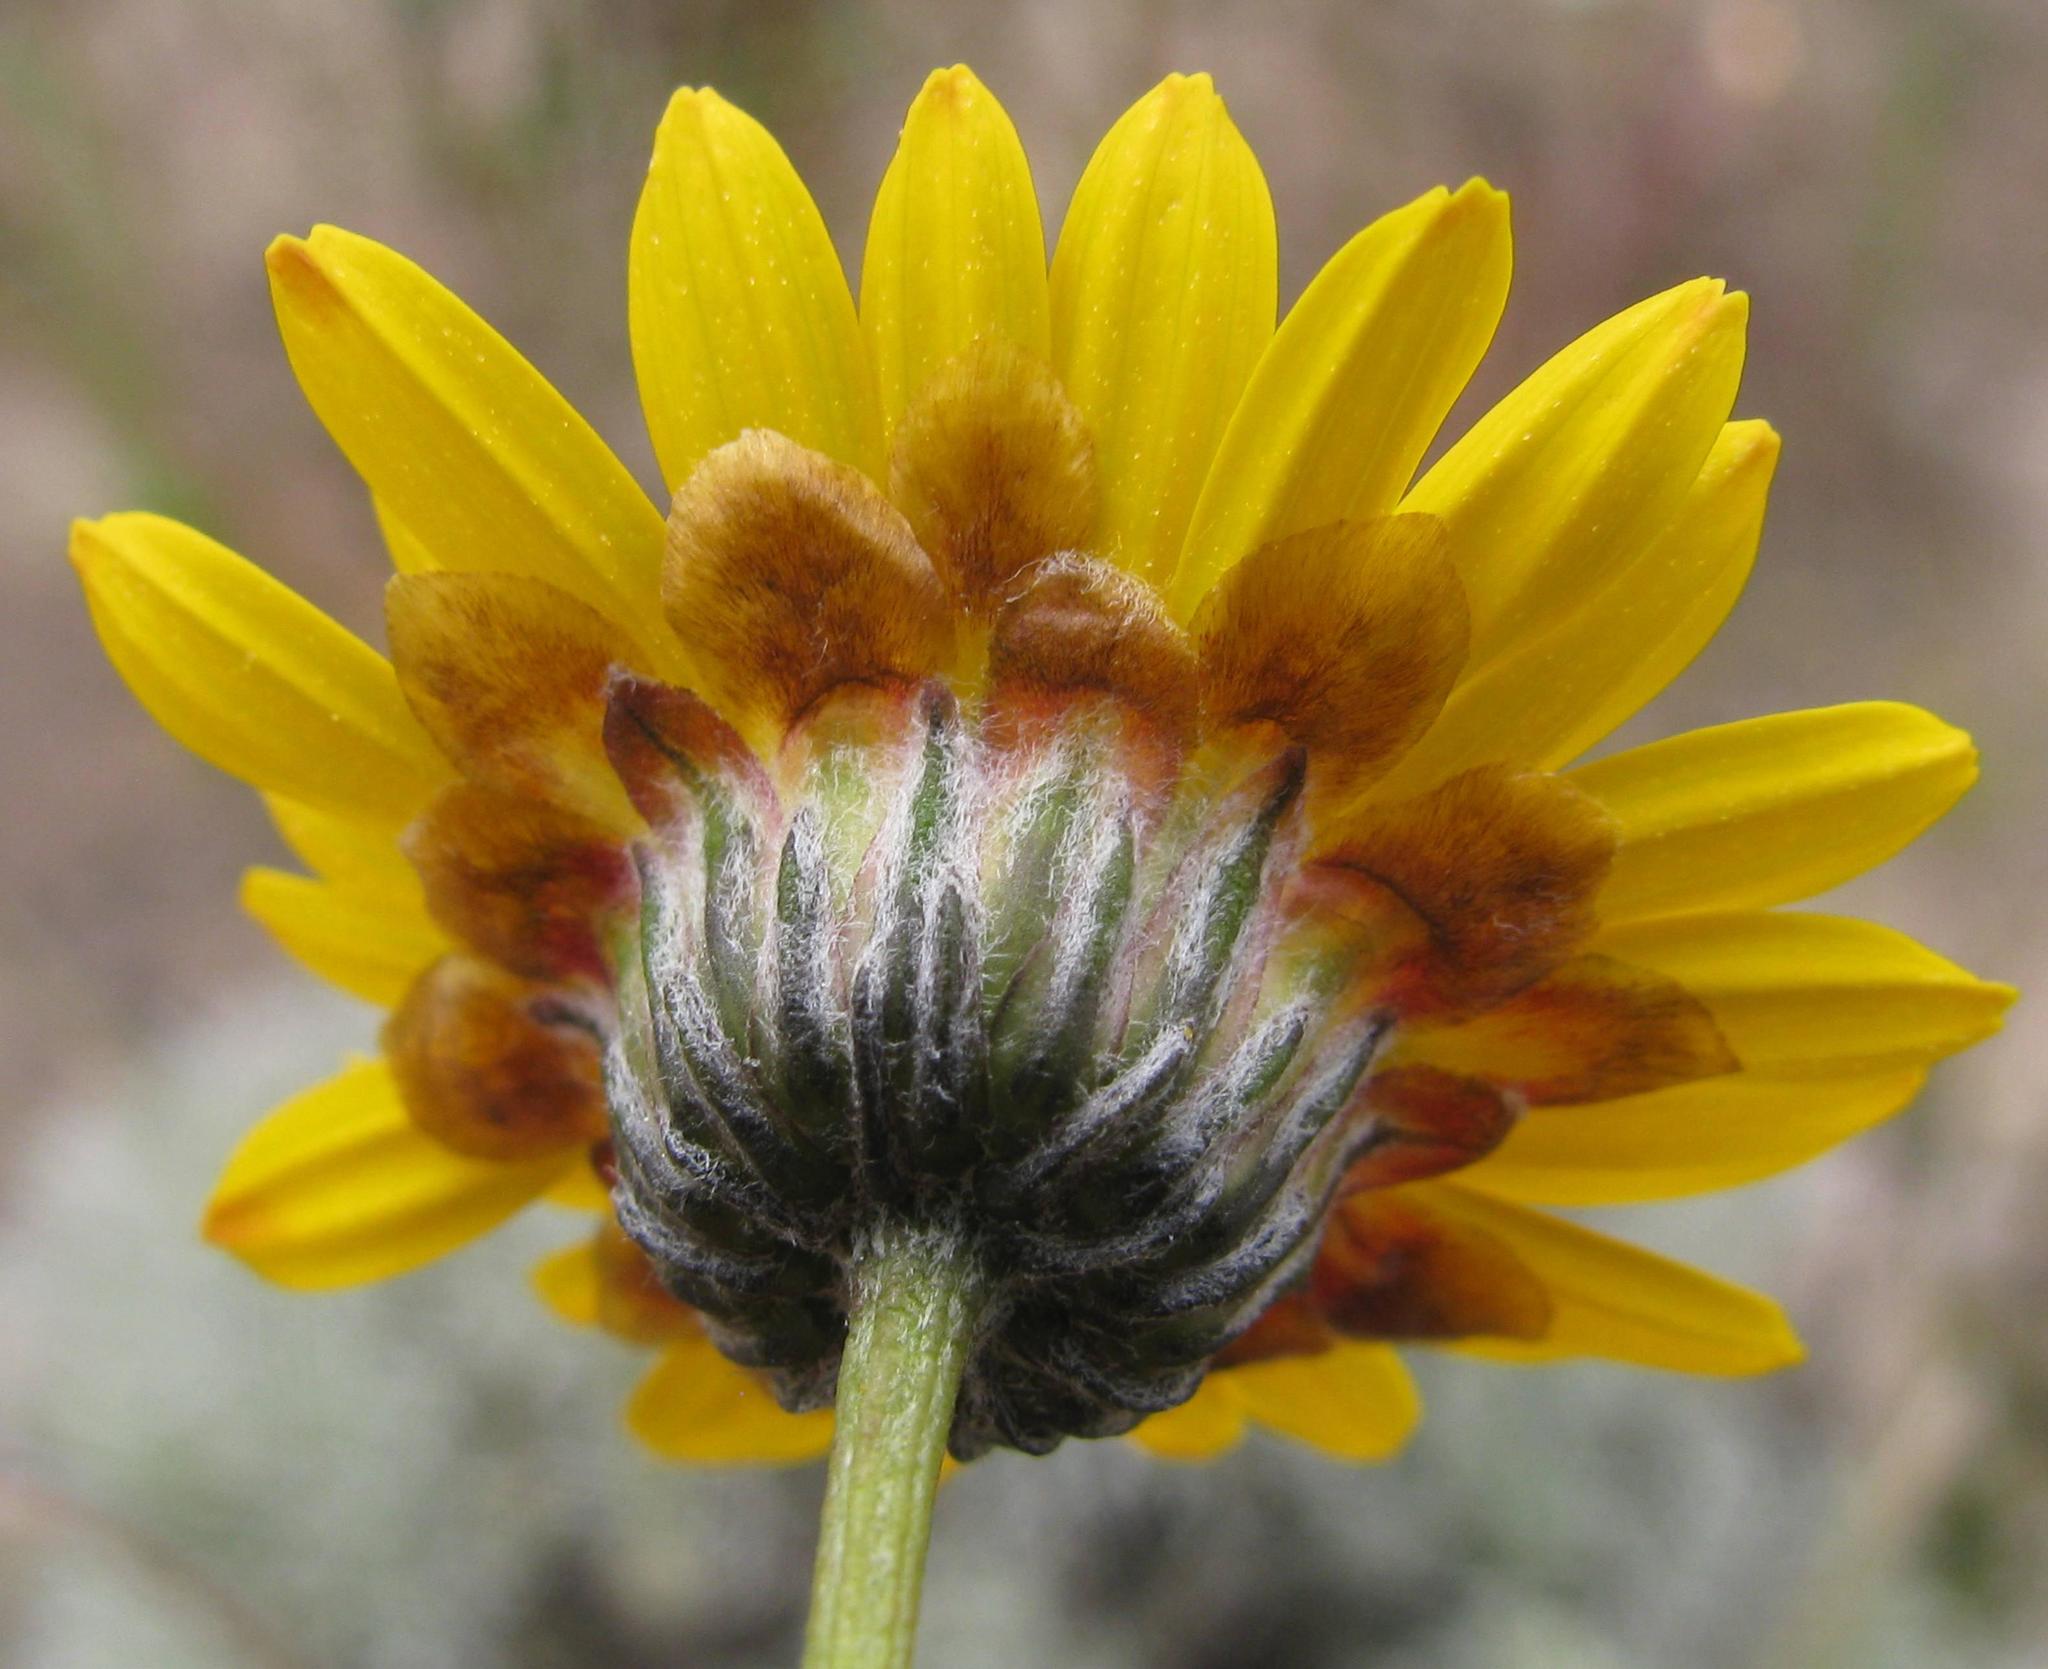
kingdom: Plantae
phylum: Tracheophyta
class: Magnoliopsida
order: Asterales
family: Asteraceae
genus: Ursinia
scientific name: Ursinia macropoda
